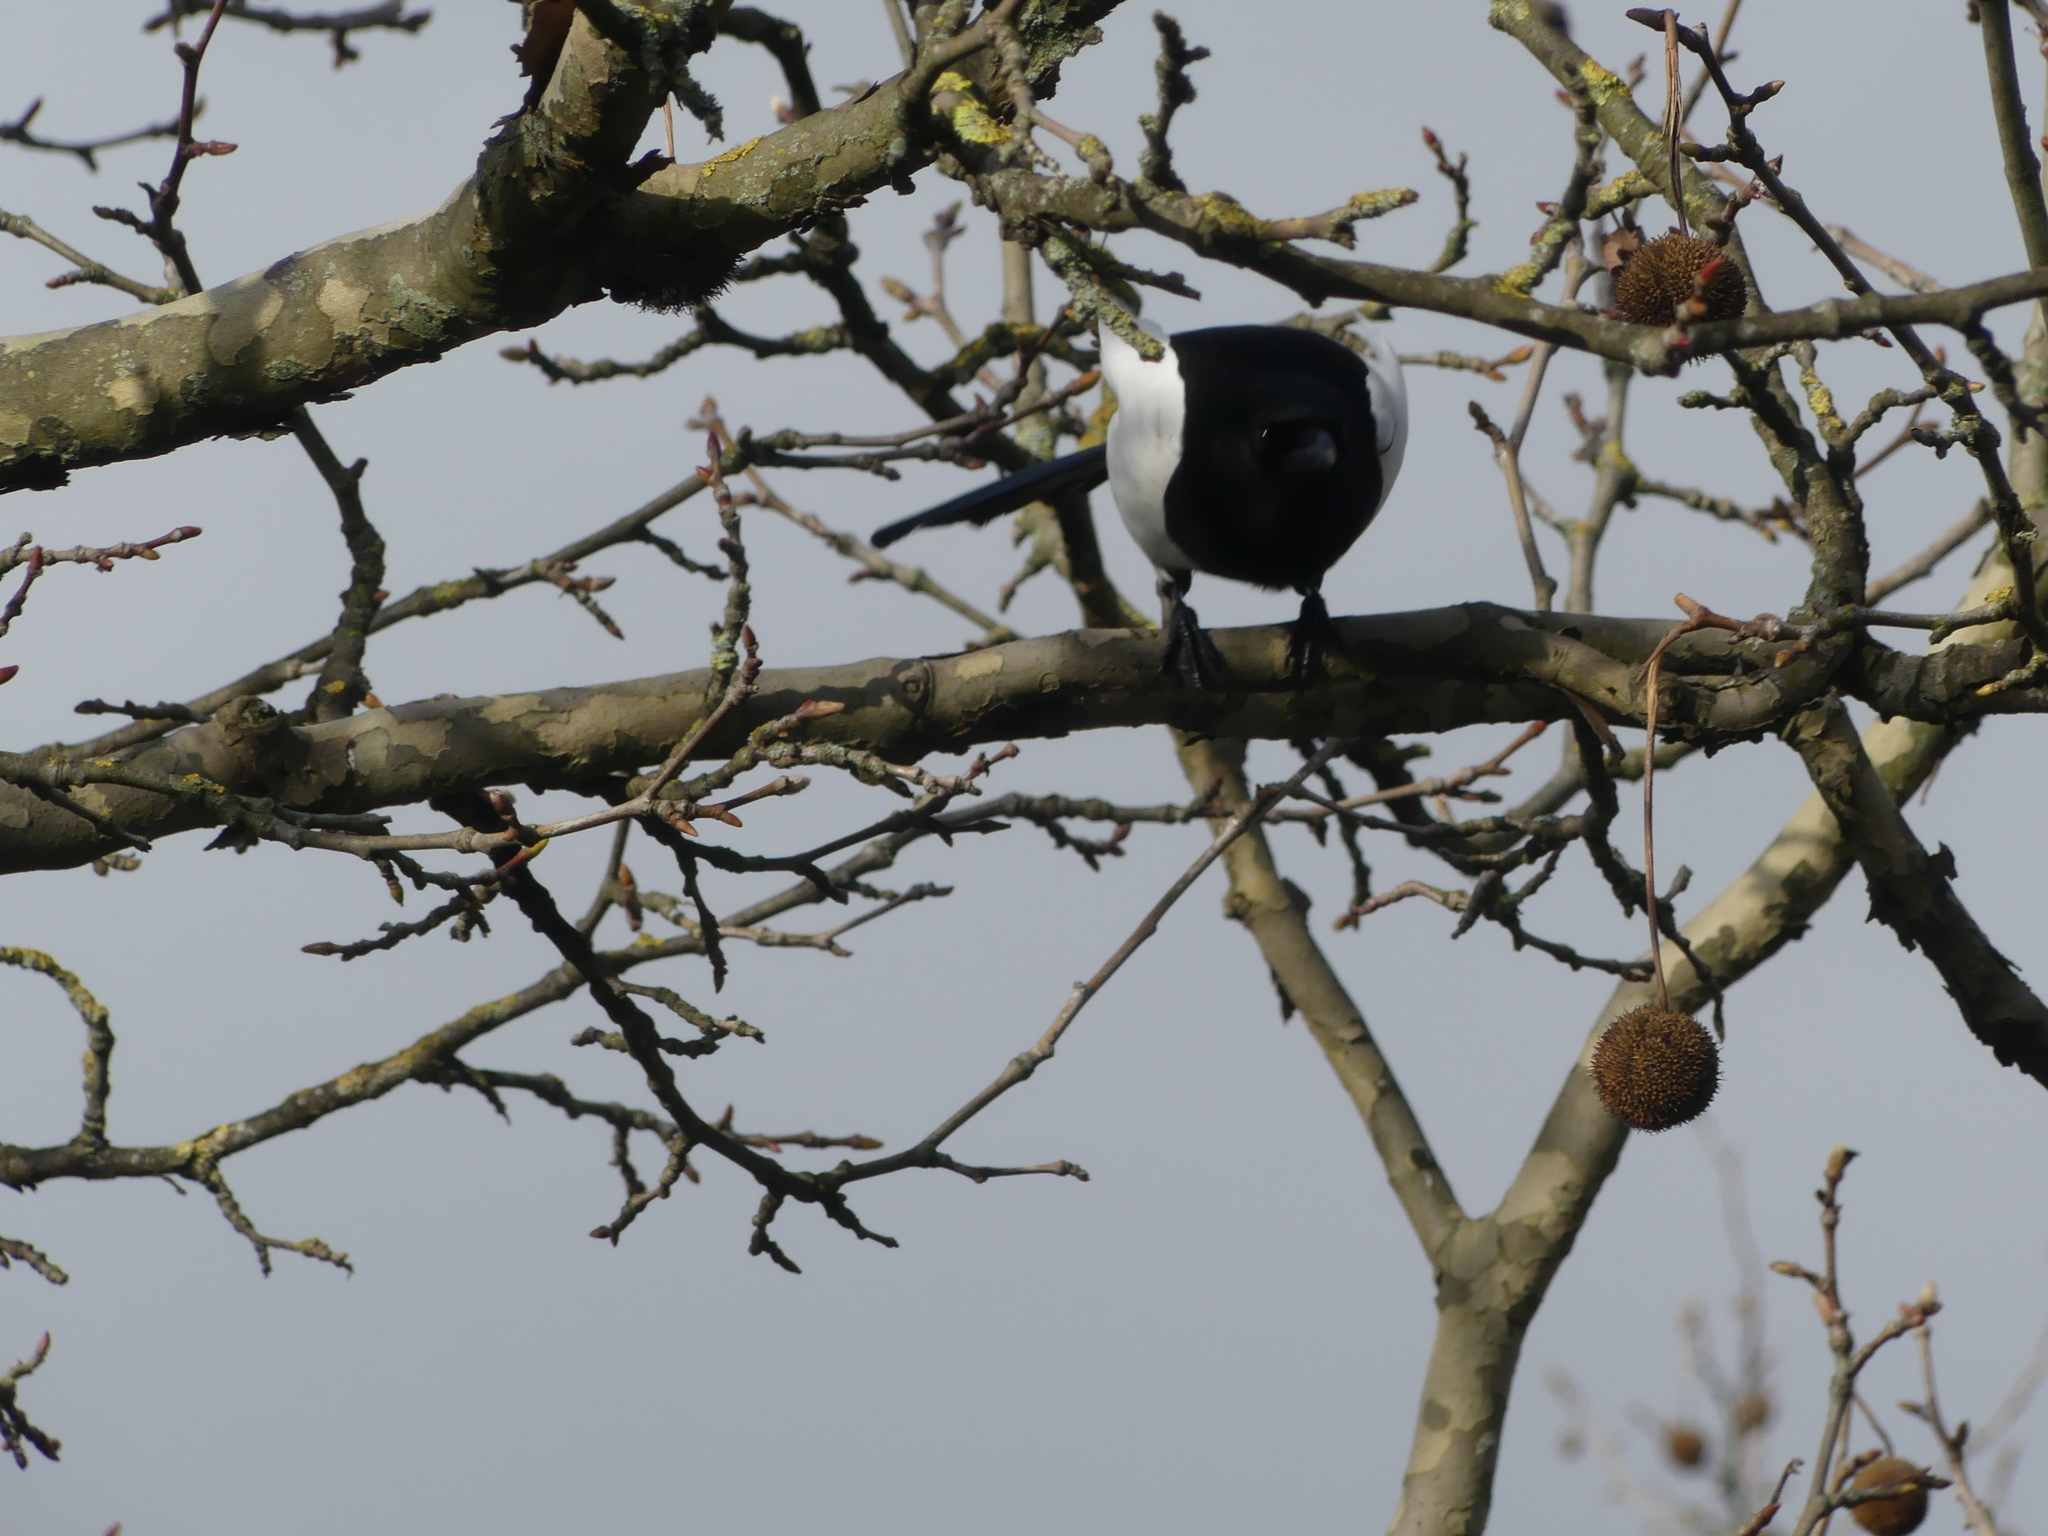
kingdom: Animalia
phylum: Chordata
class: Aves
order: Passeriformes
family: Corvidae
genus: Pica
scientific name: Pica pica
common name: Eurasian magpie
